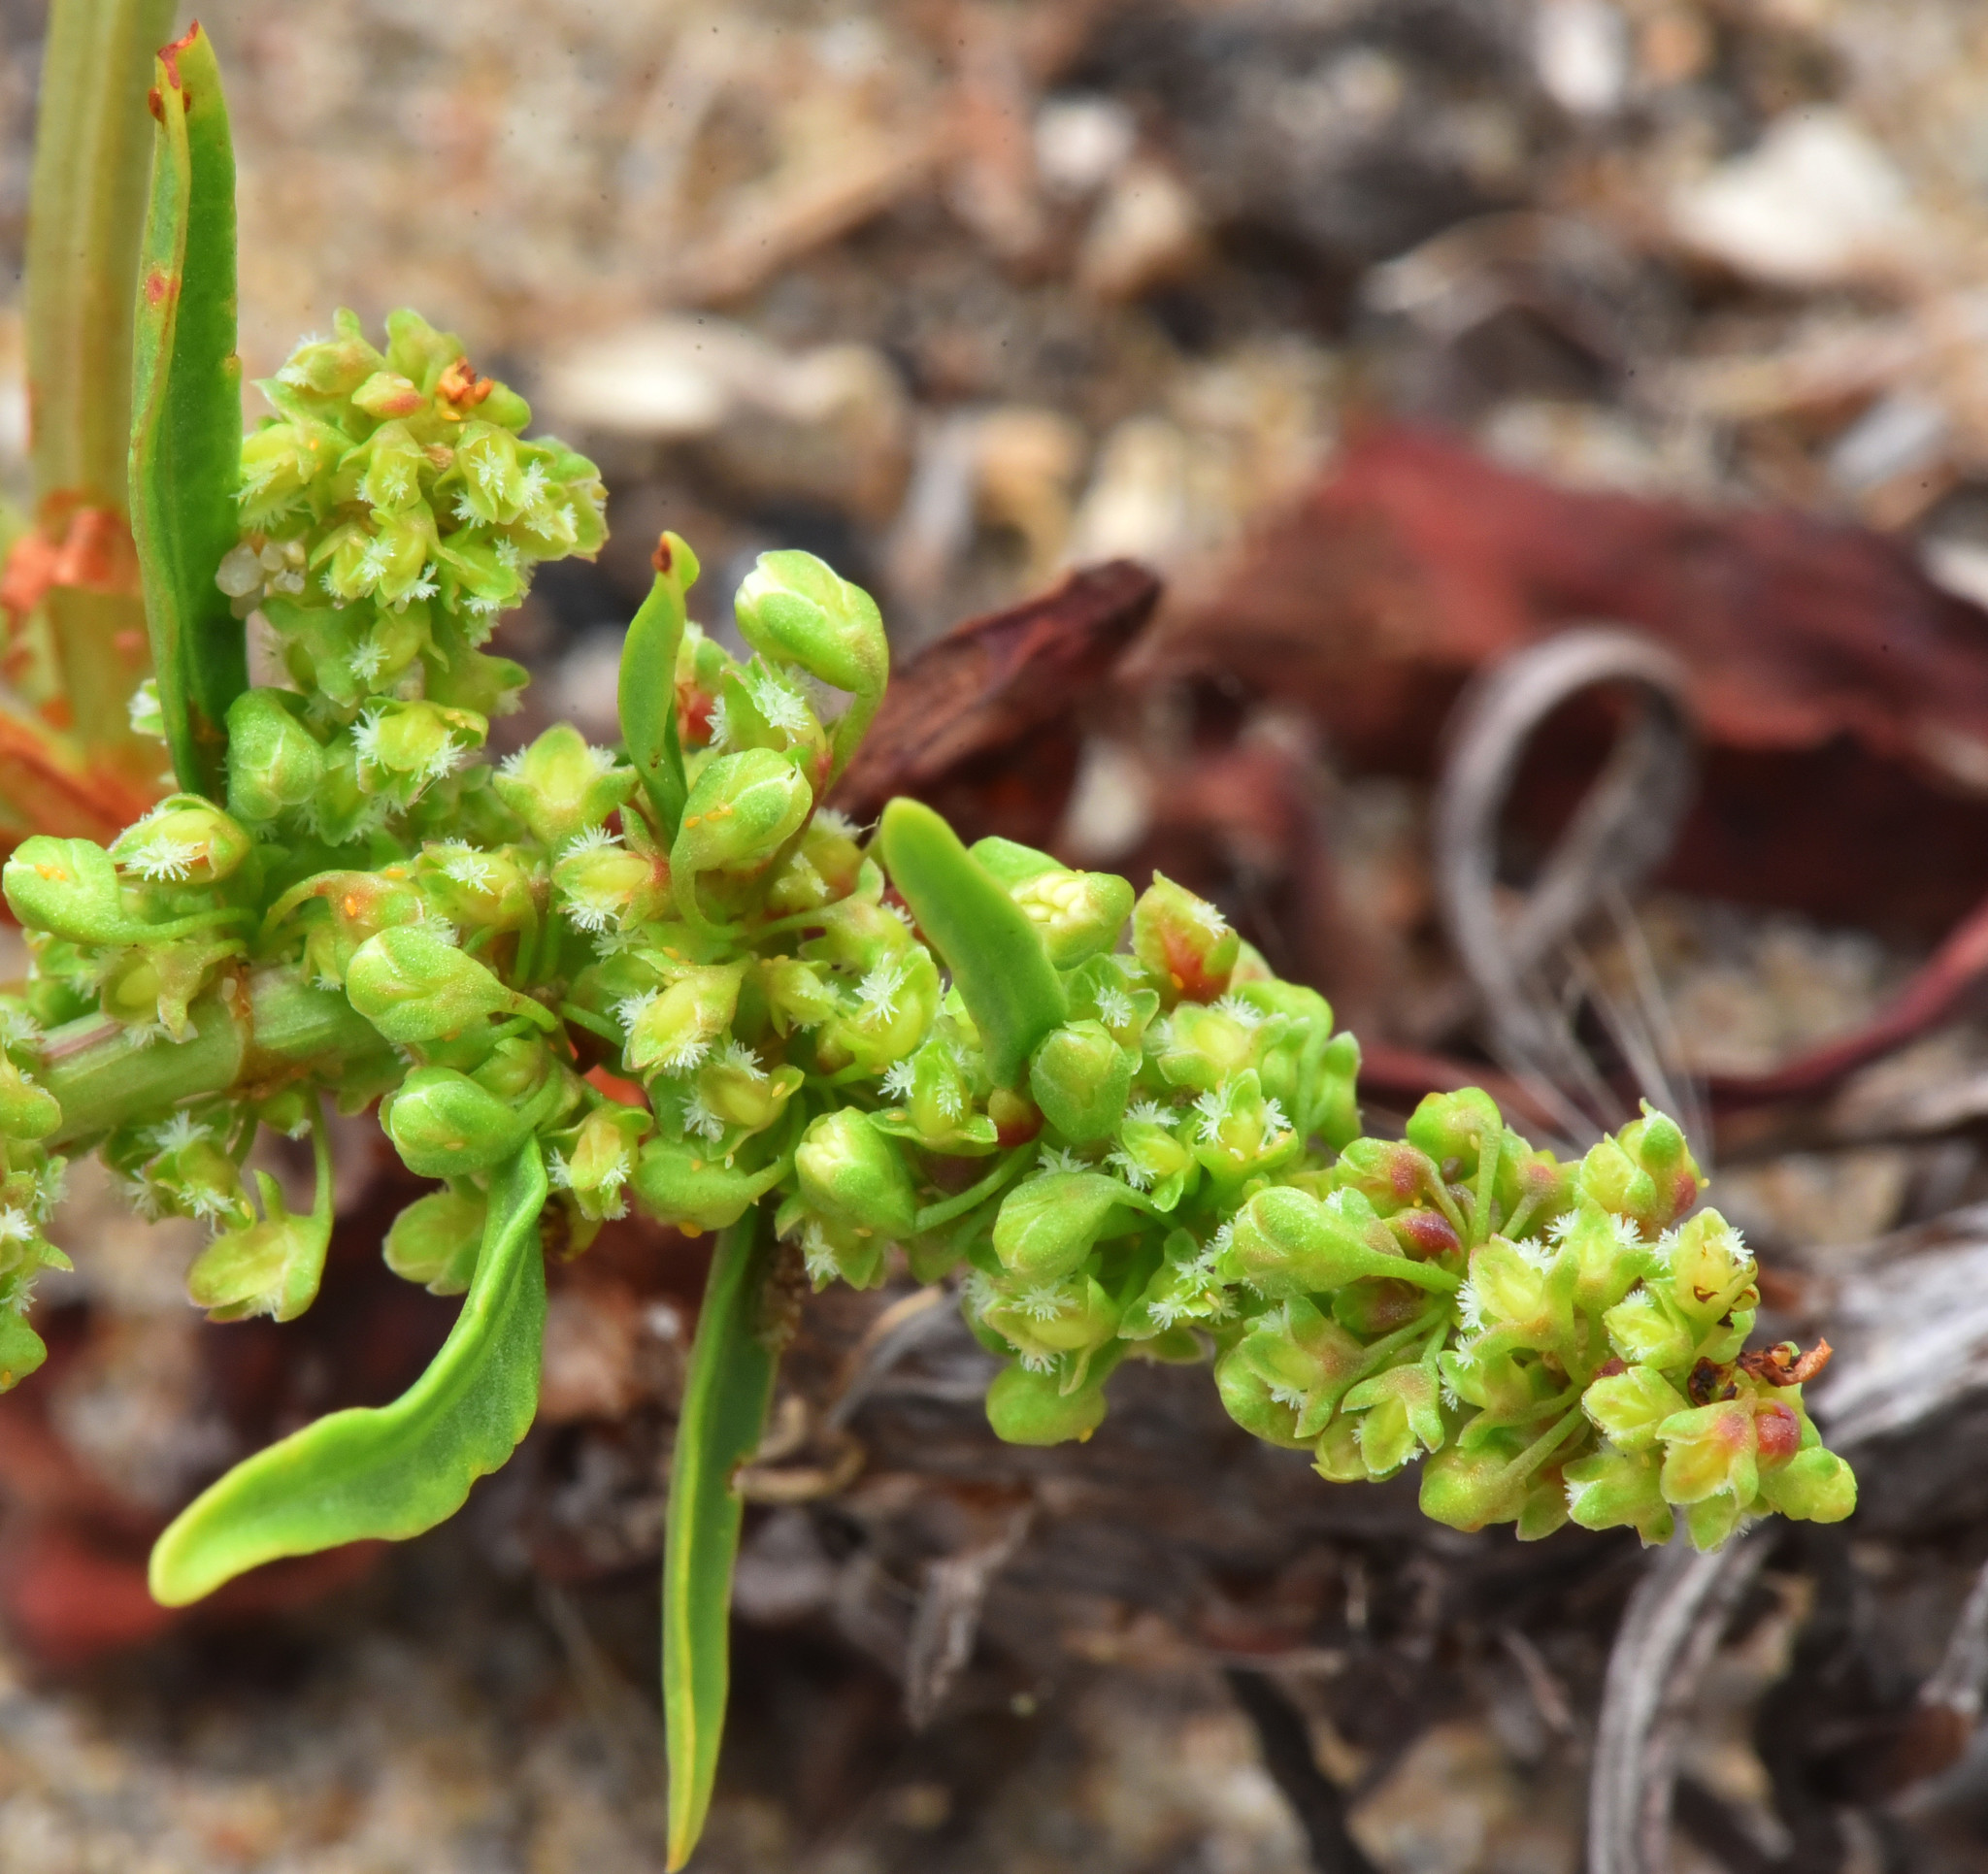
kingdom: Plantae
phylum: Tracheophyta
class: Magnoliopsida
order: Caryophyllales
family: Polygonaceae
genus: Rumex
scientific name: Rumex crassus
